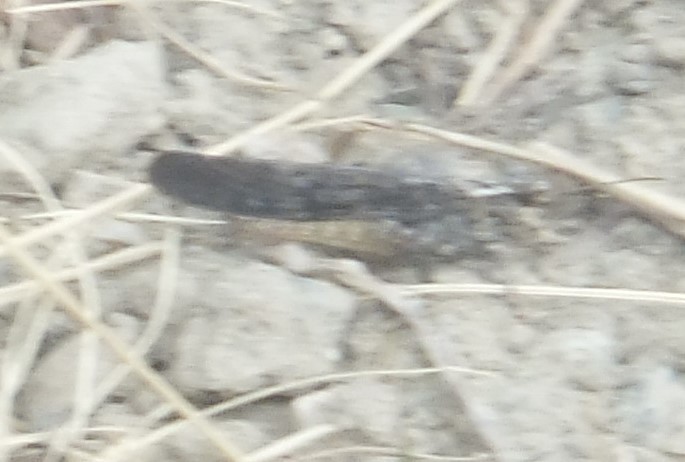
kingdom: Animalia
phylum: Arthropoda
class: Insecta
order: Orthoptera
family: Acrididae
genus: Trimerotropis
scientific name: Trimerotropis verruculata
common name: Crackling forest grasshopper
